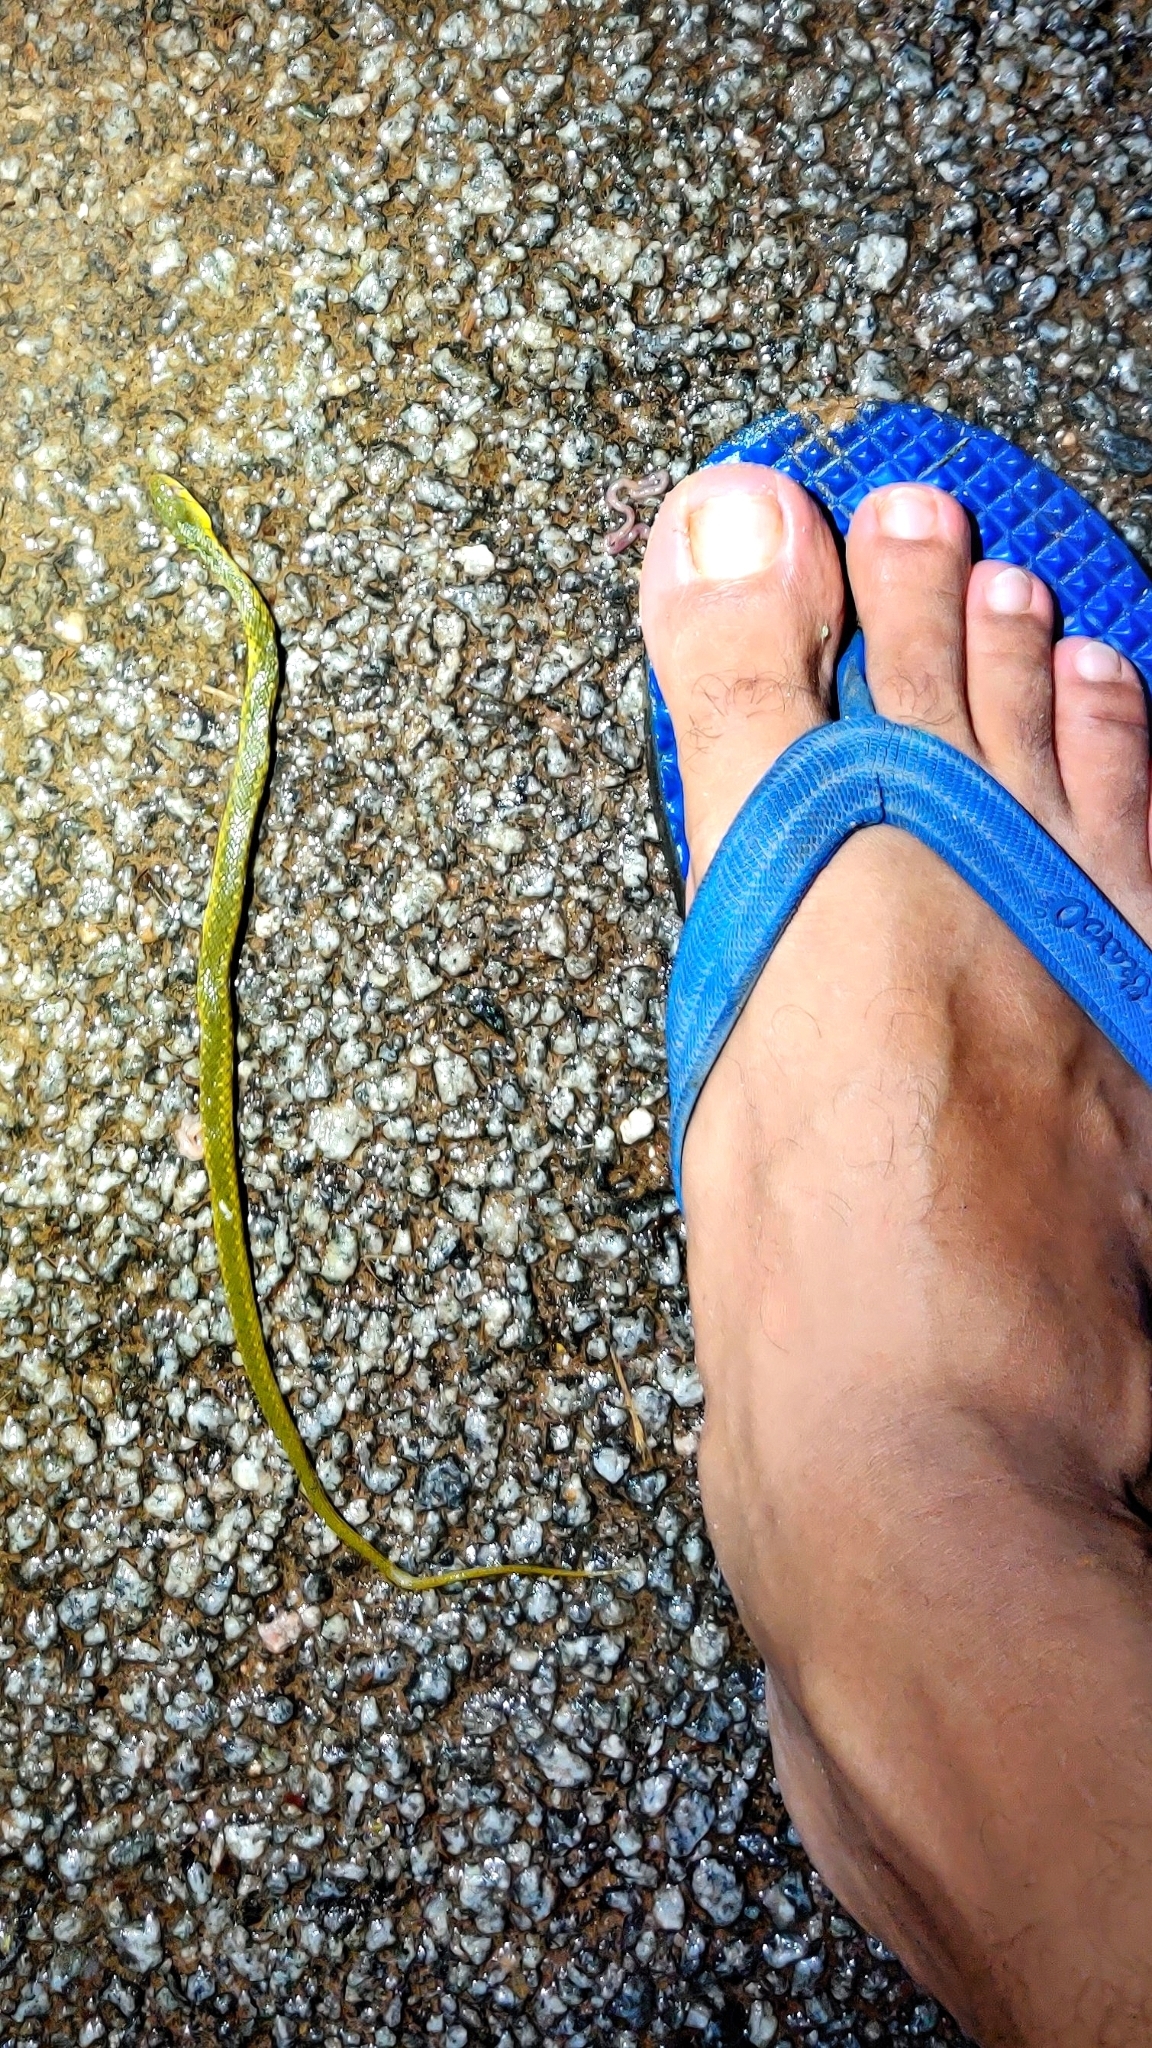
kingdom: Animalia
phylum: Chordata
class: Squamata
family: Colubridae
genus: Fowlea
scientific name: Fowlea piscator
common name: Asiatic water snake
